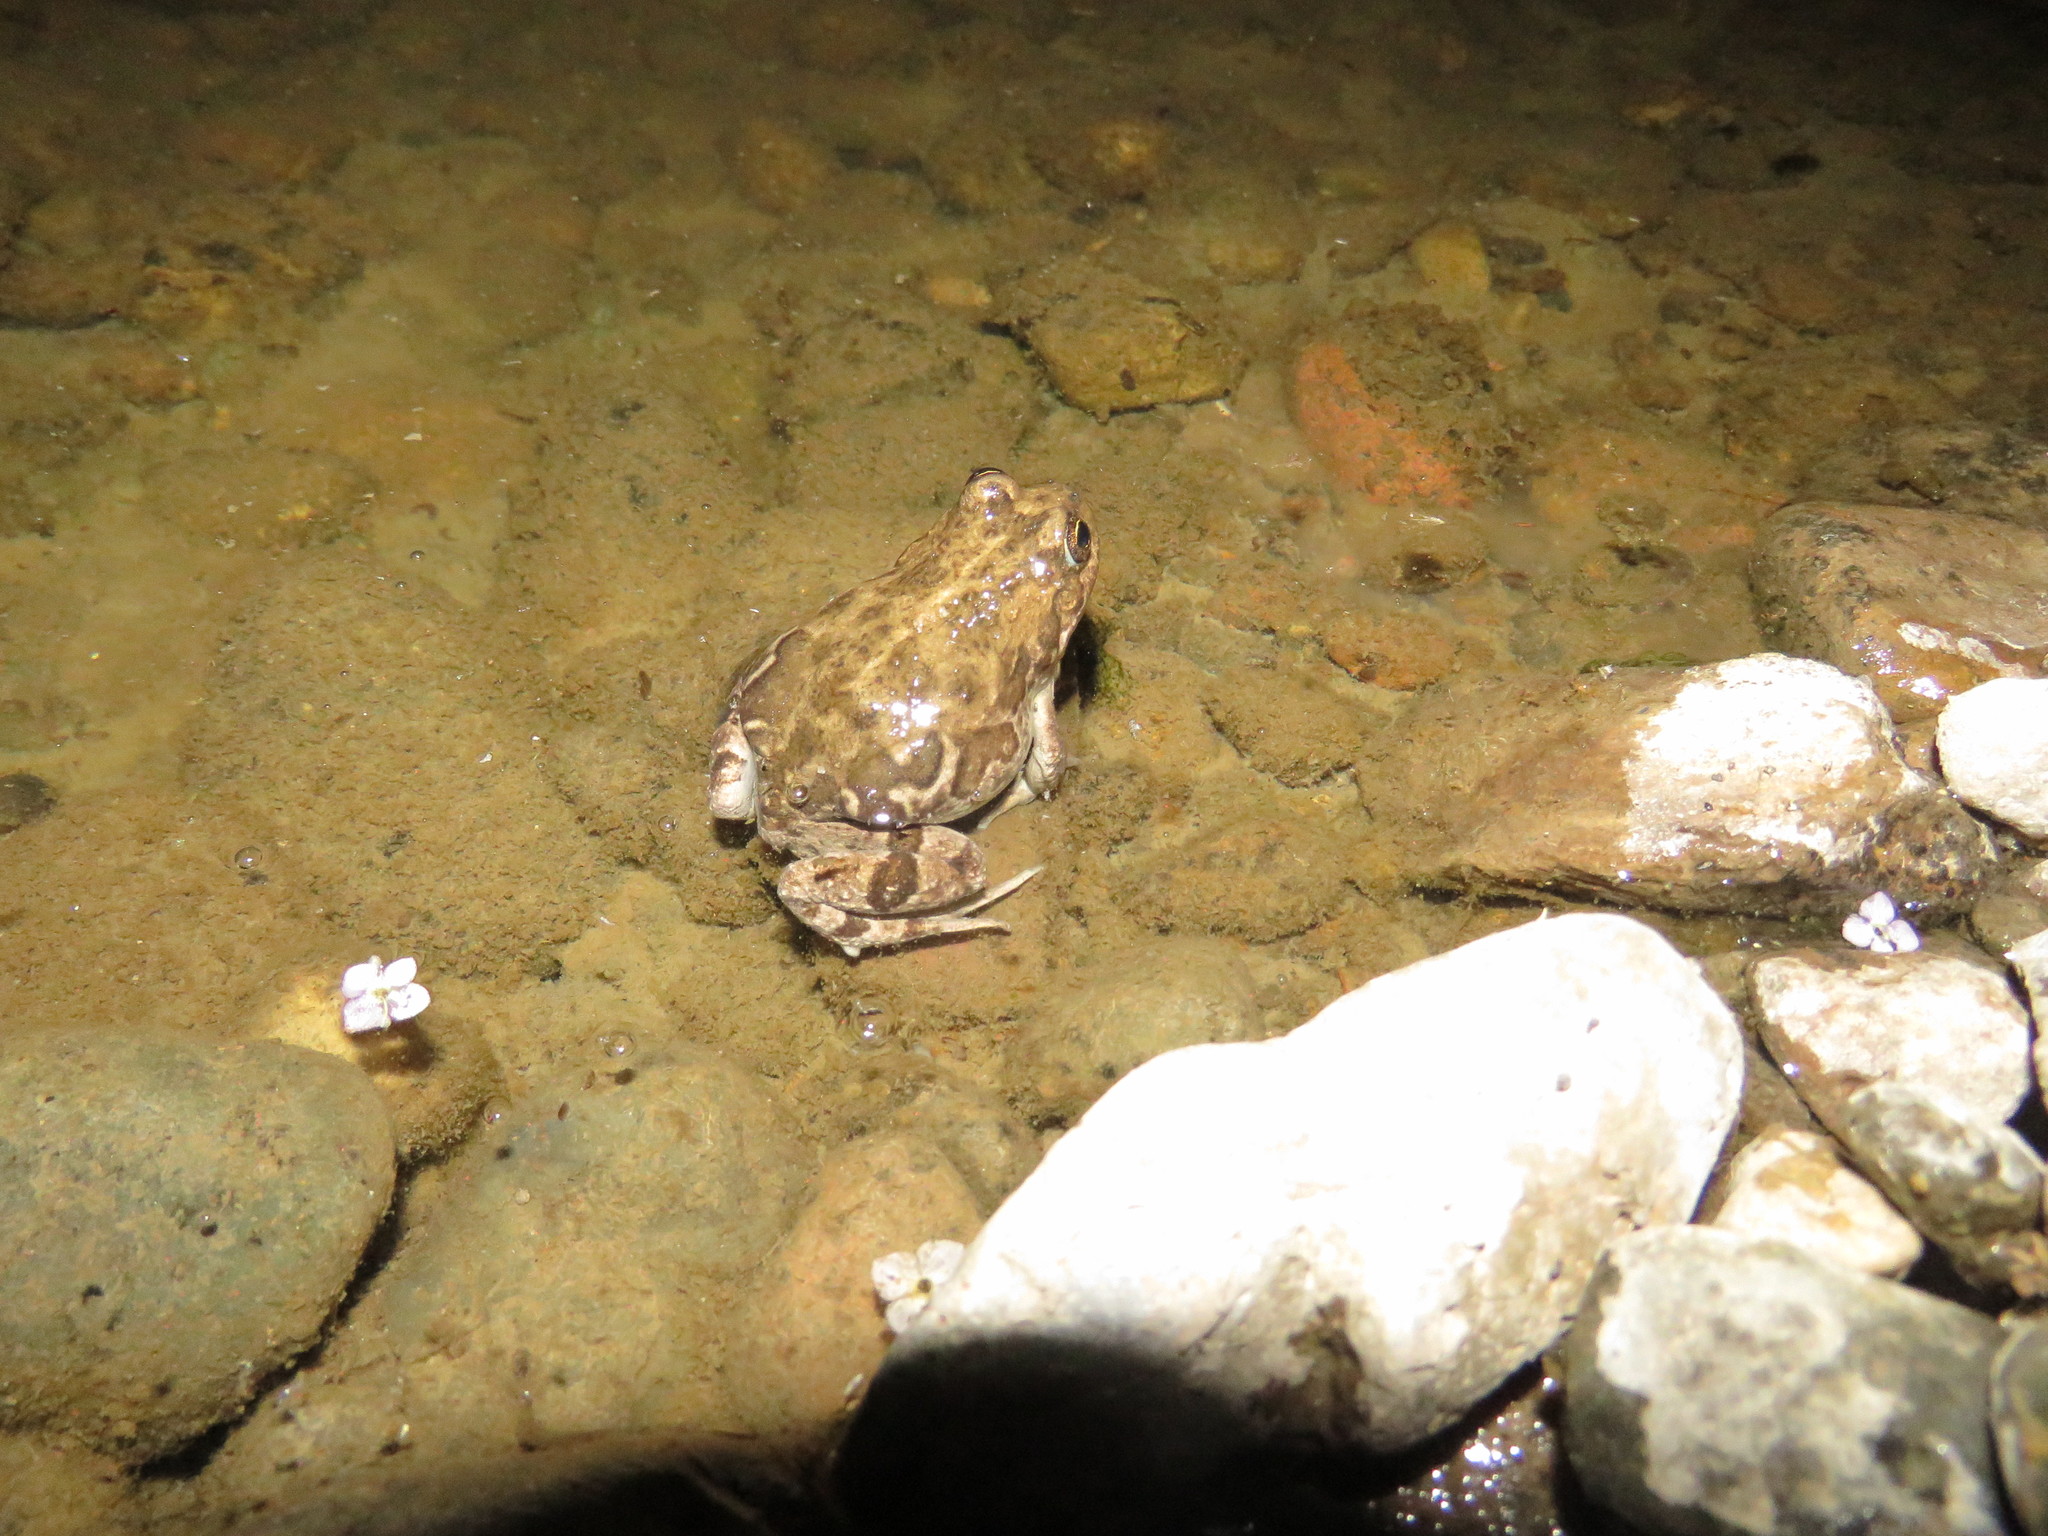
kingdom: Animalia
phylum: Chordata
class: Amphibia
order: Anura
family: Leptodactylidae
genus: Pleurodema
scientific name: Pleurodema bufoninum
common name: Large four-eyed frog
